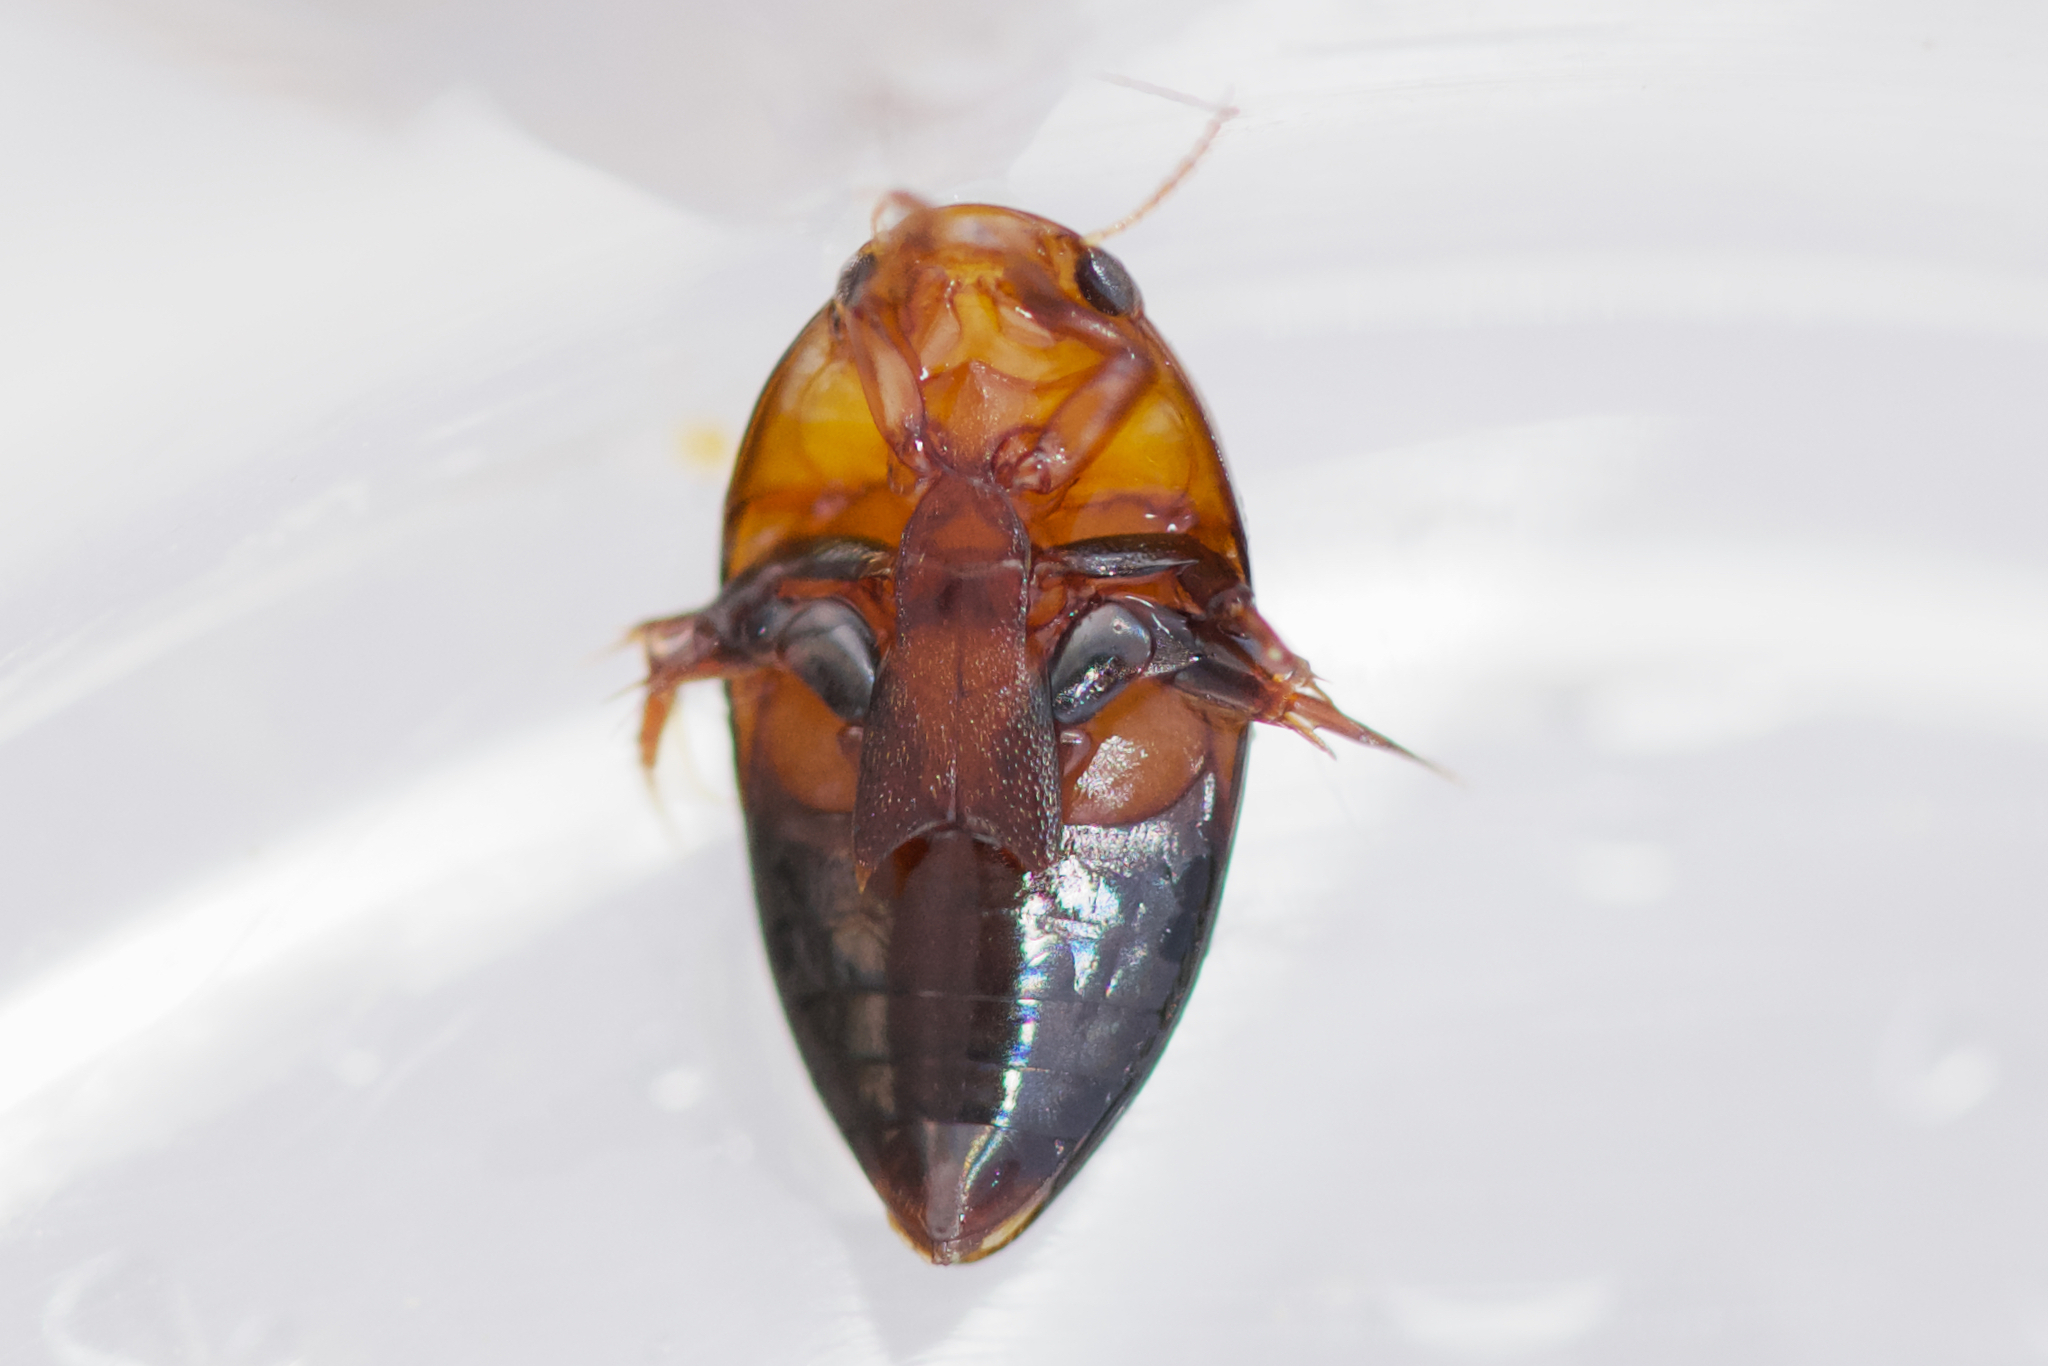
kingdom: Animalia
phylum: Arthropoda
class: Insecta
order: Coleoptera
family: Noteridae
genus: Hydrocanthus
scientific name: Hydrocanthus iricolor
